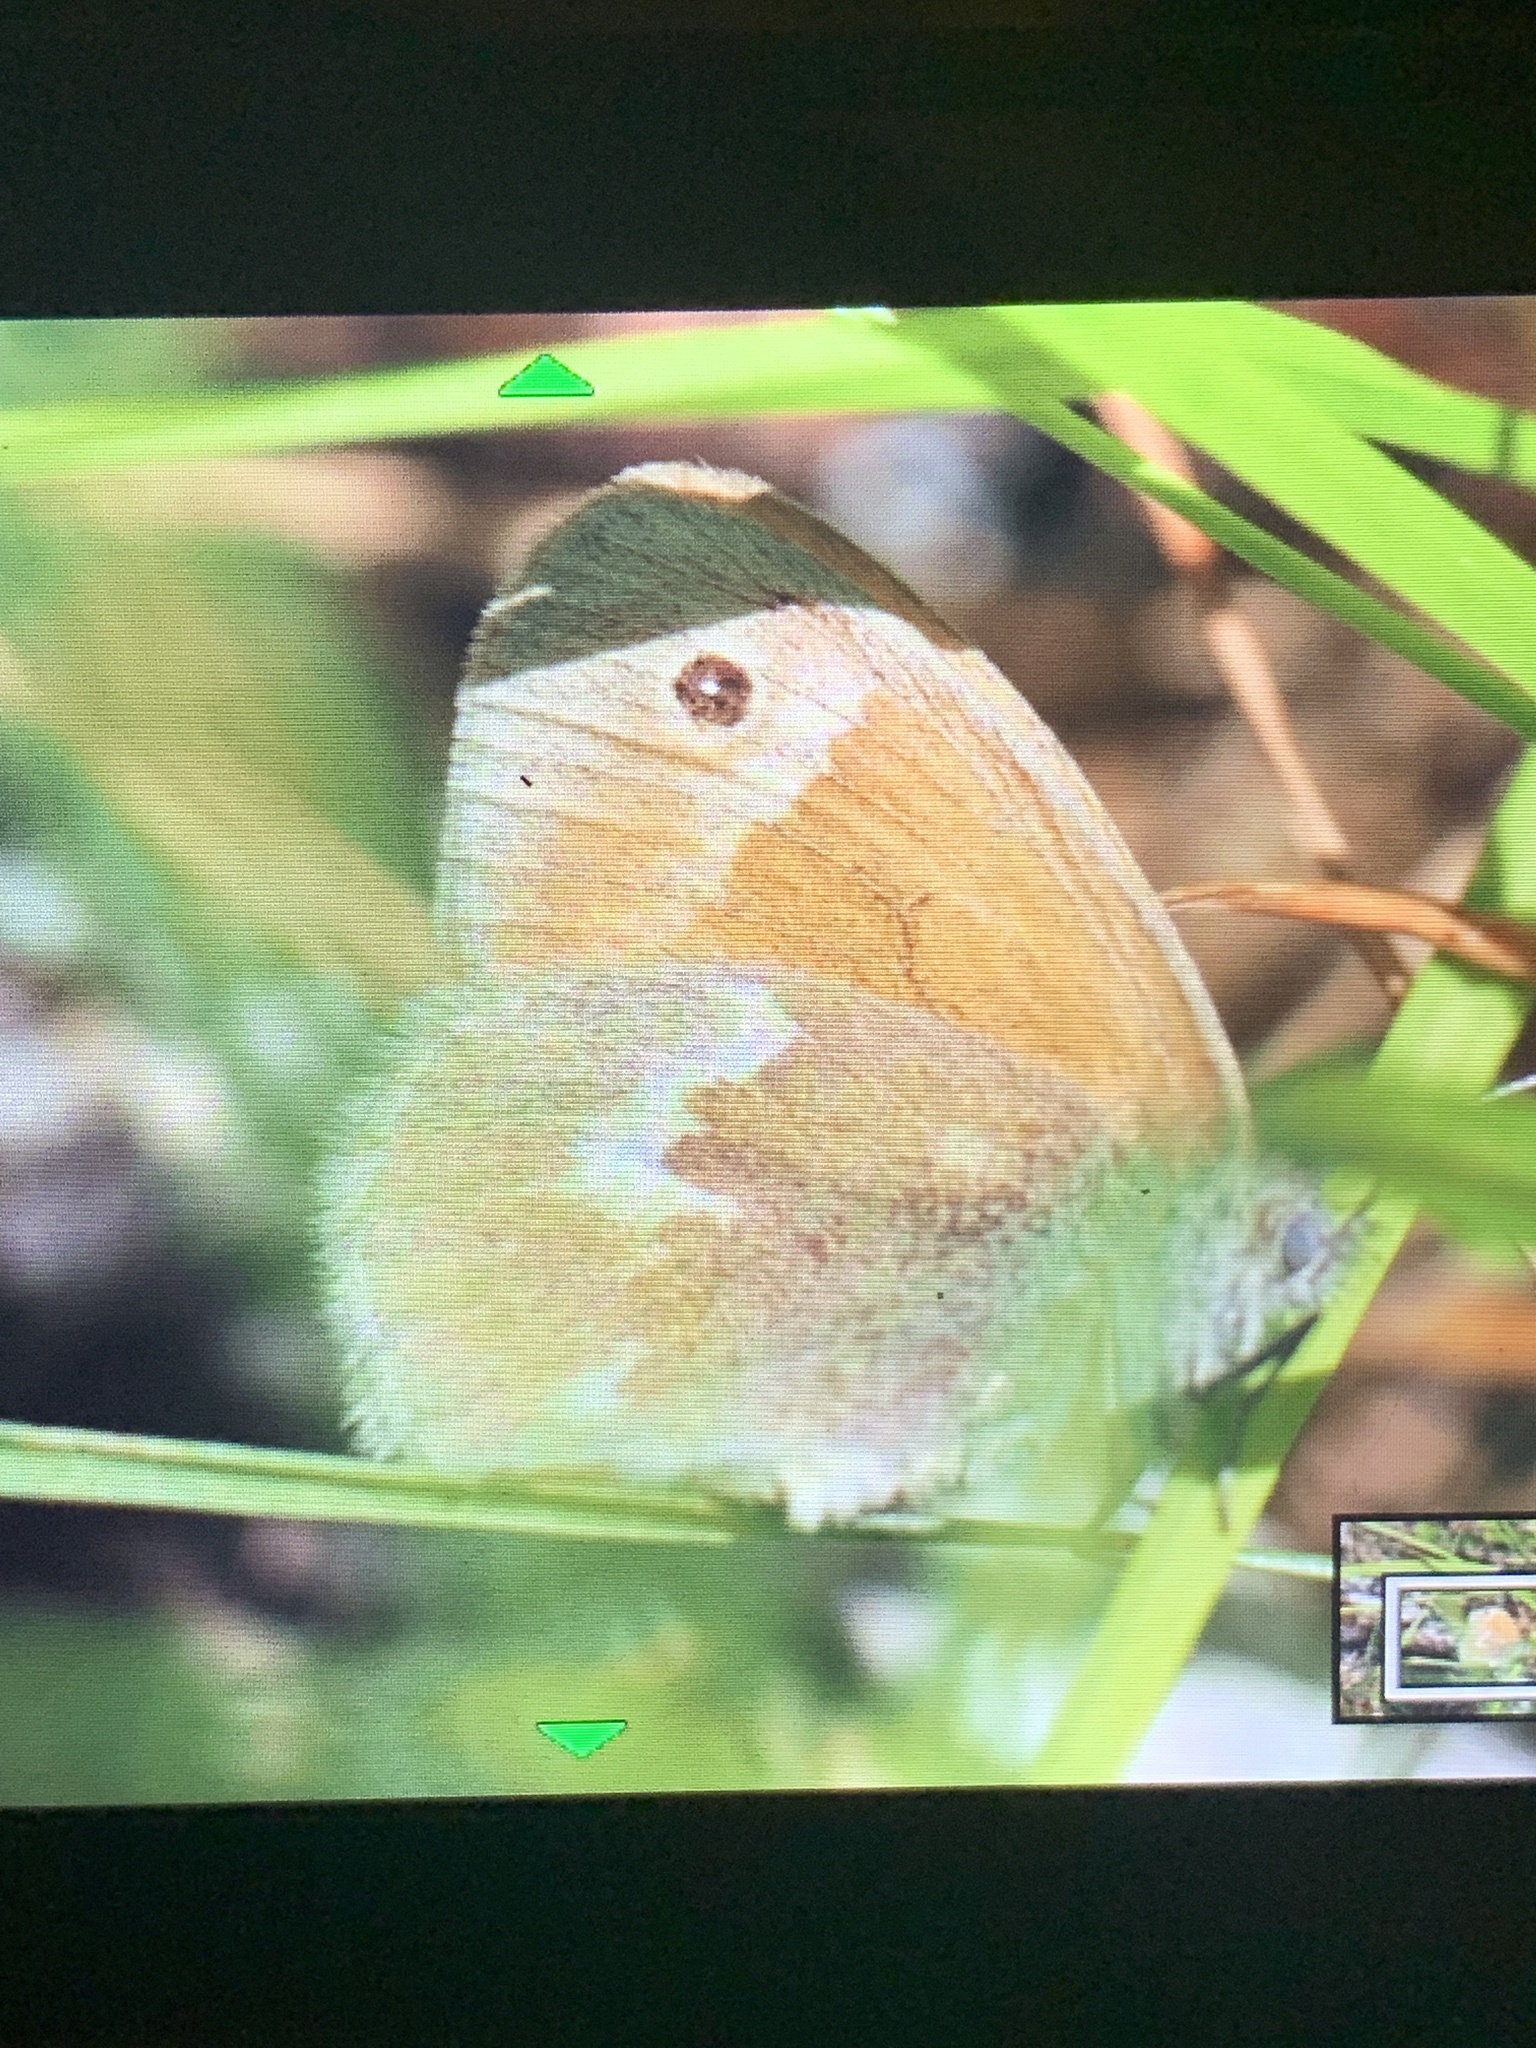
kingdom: Animalia
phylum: Arthropoda
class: Insecta
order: Lepidoptera
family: Nymphalidae
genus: Coenonympha
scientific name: Coenonympha california
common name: Common ringlet
